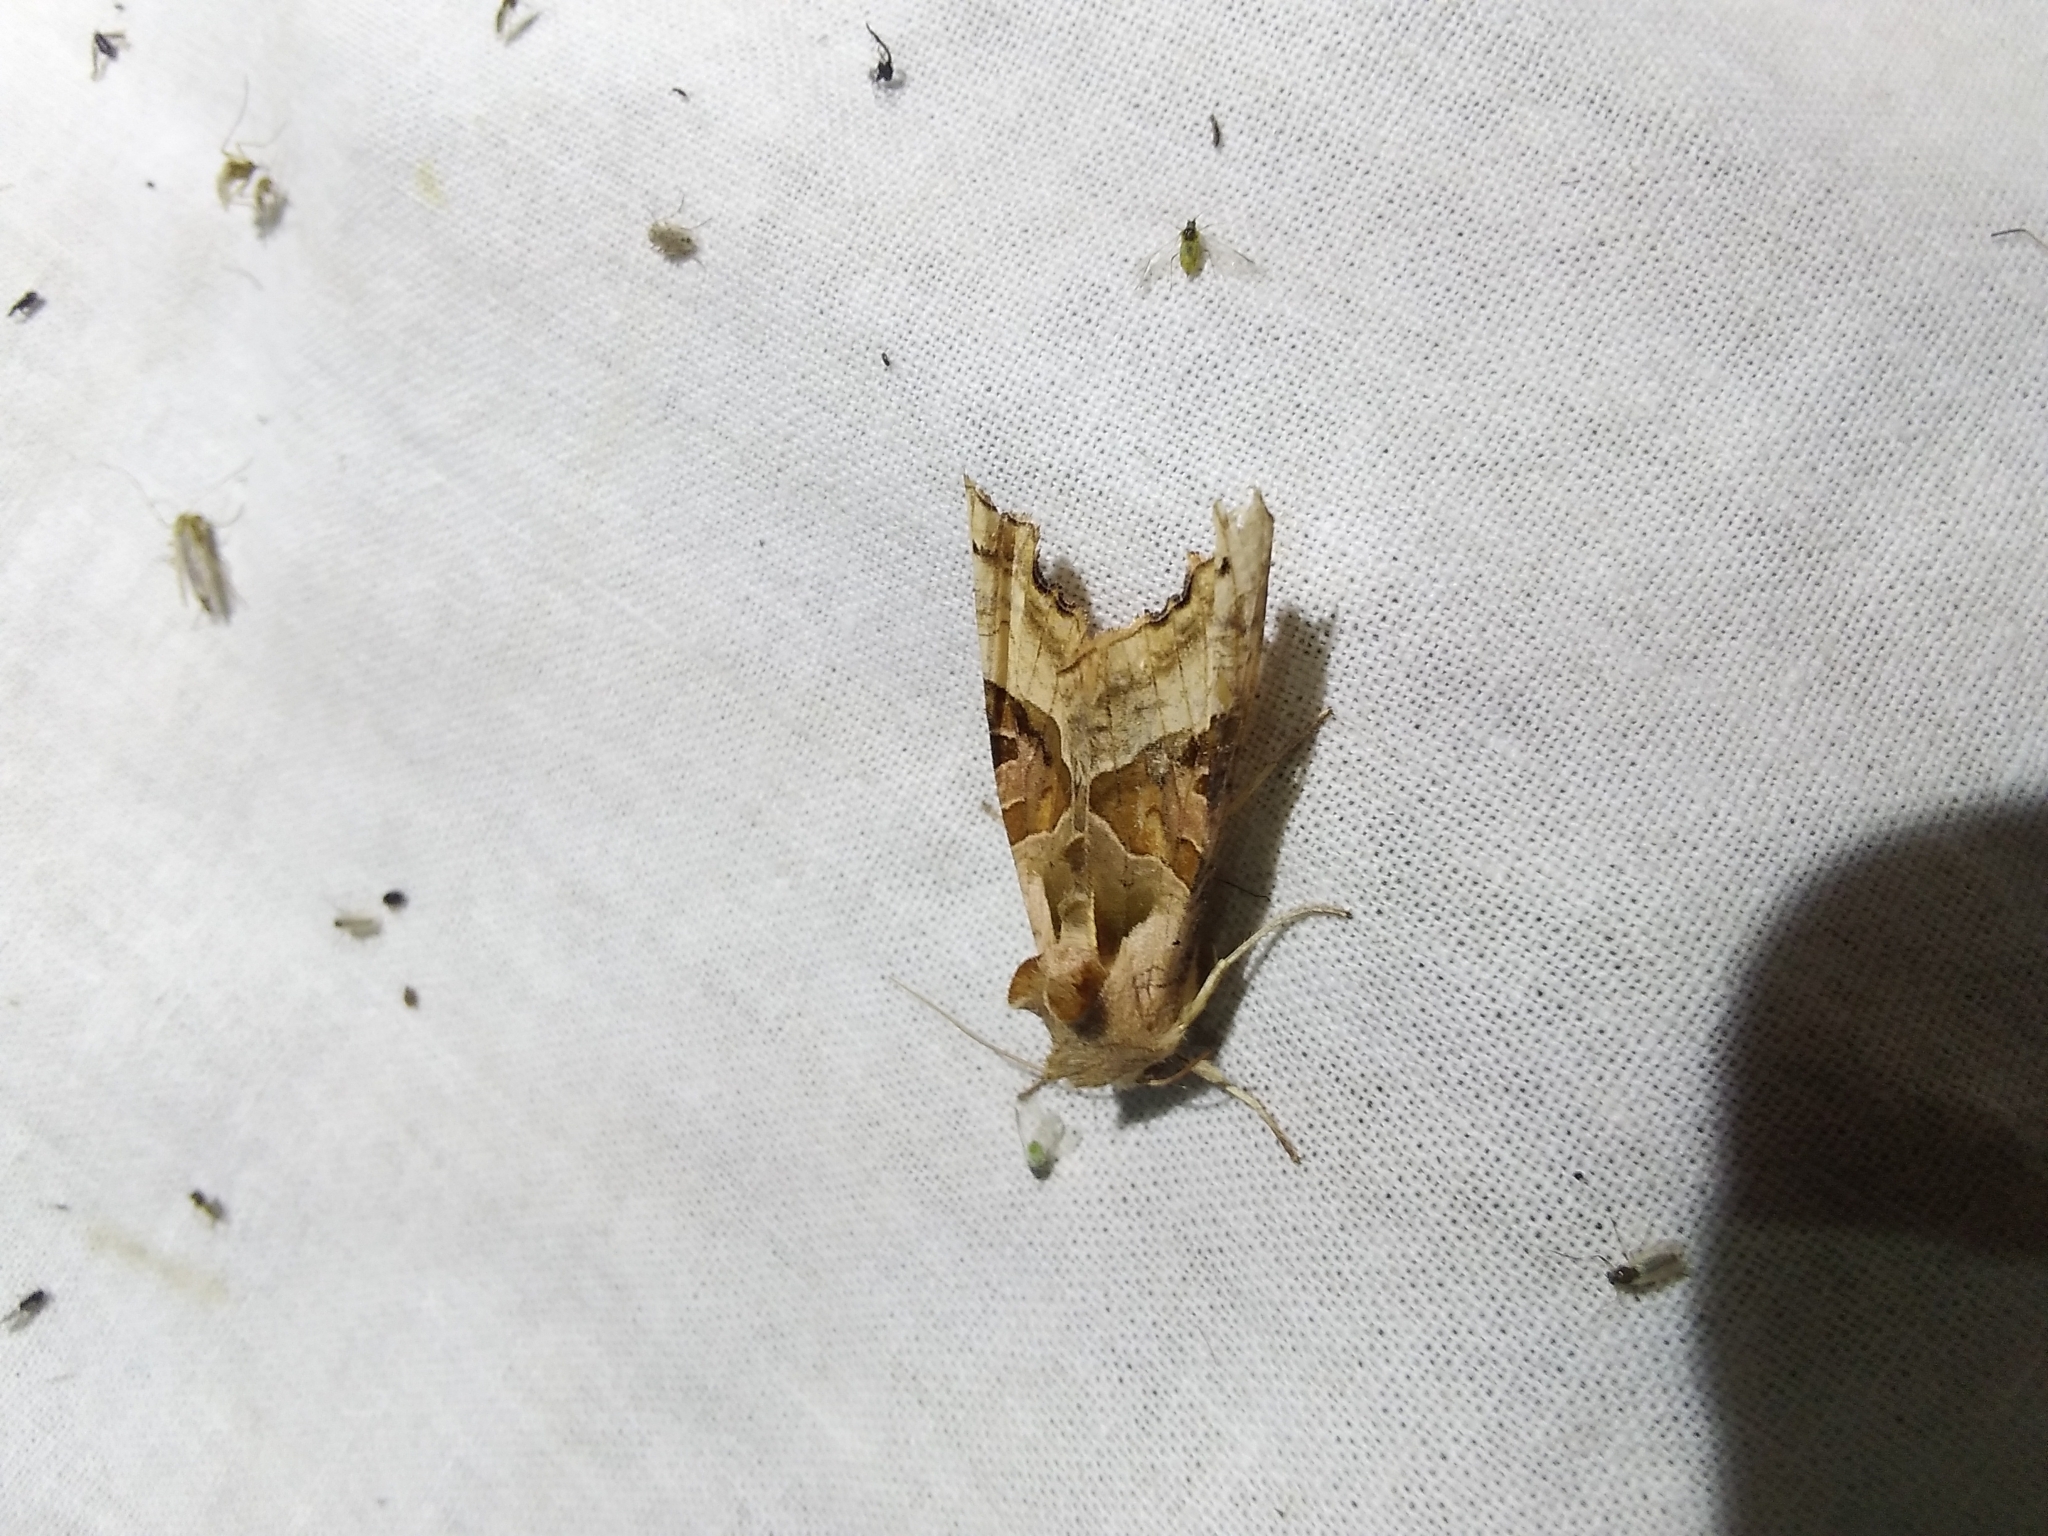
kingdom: Animalia
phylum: Arthropoda
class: Insecta
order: Lepidoptera
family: Noctuidae
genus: Phlogophora
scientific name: Phlogophora meticulosa
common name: Angle shades
